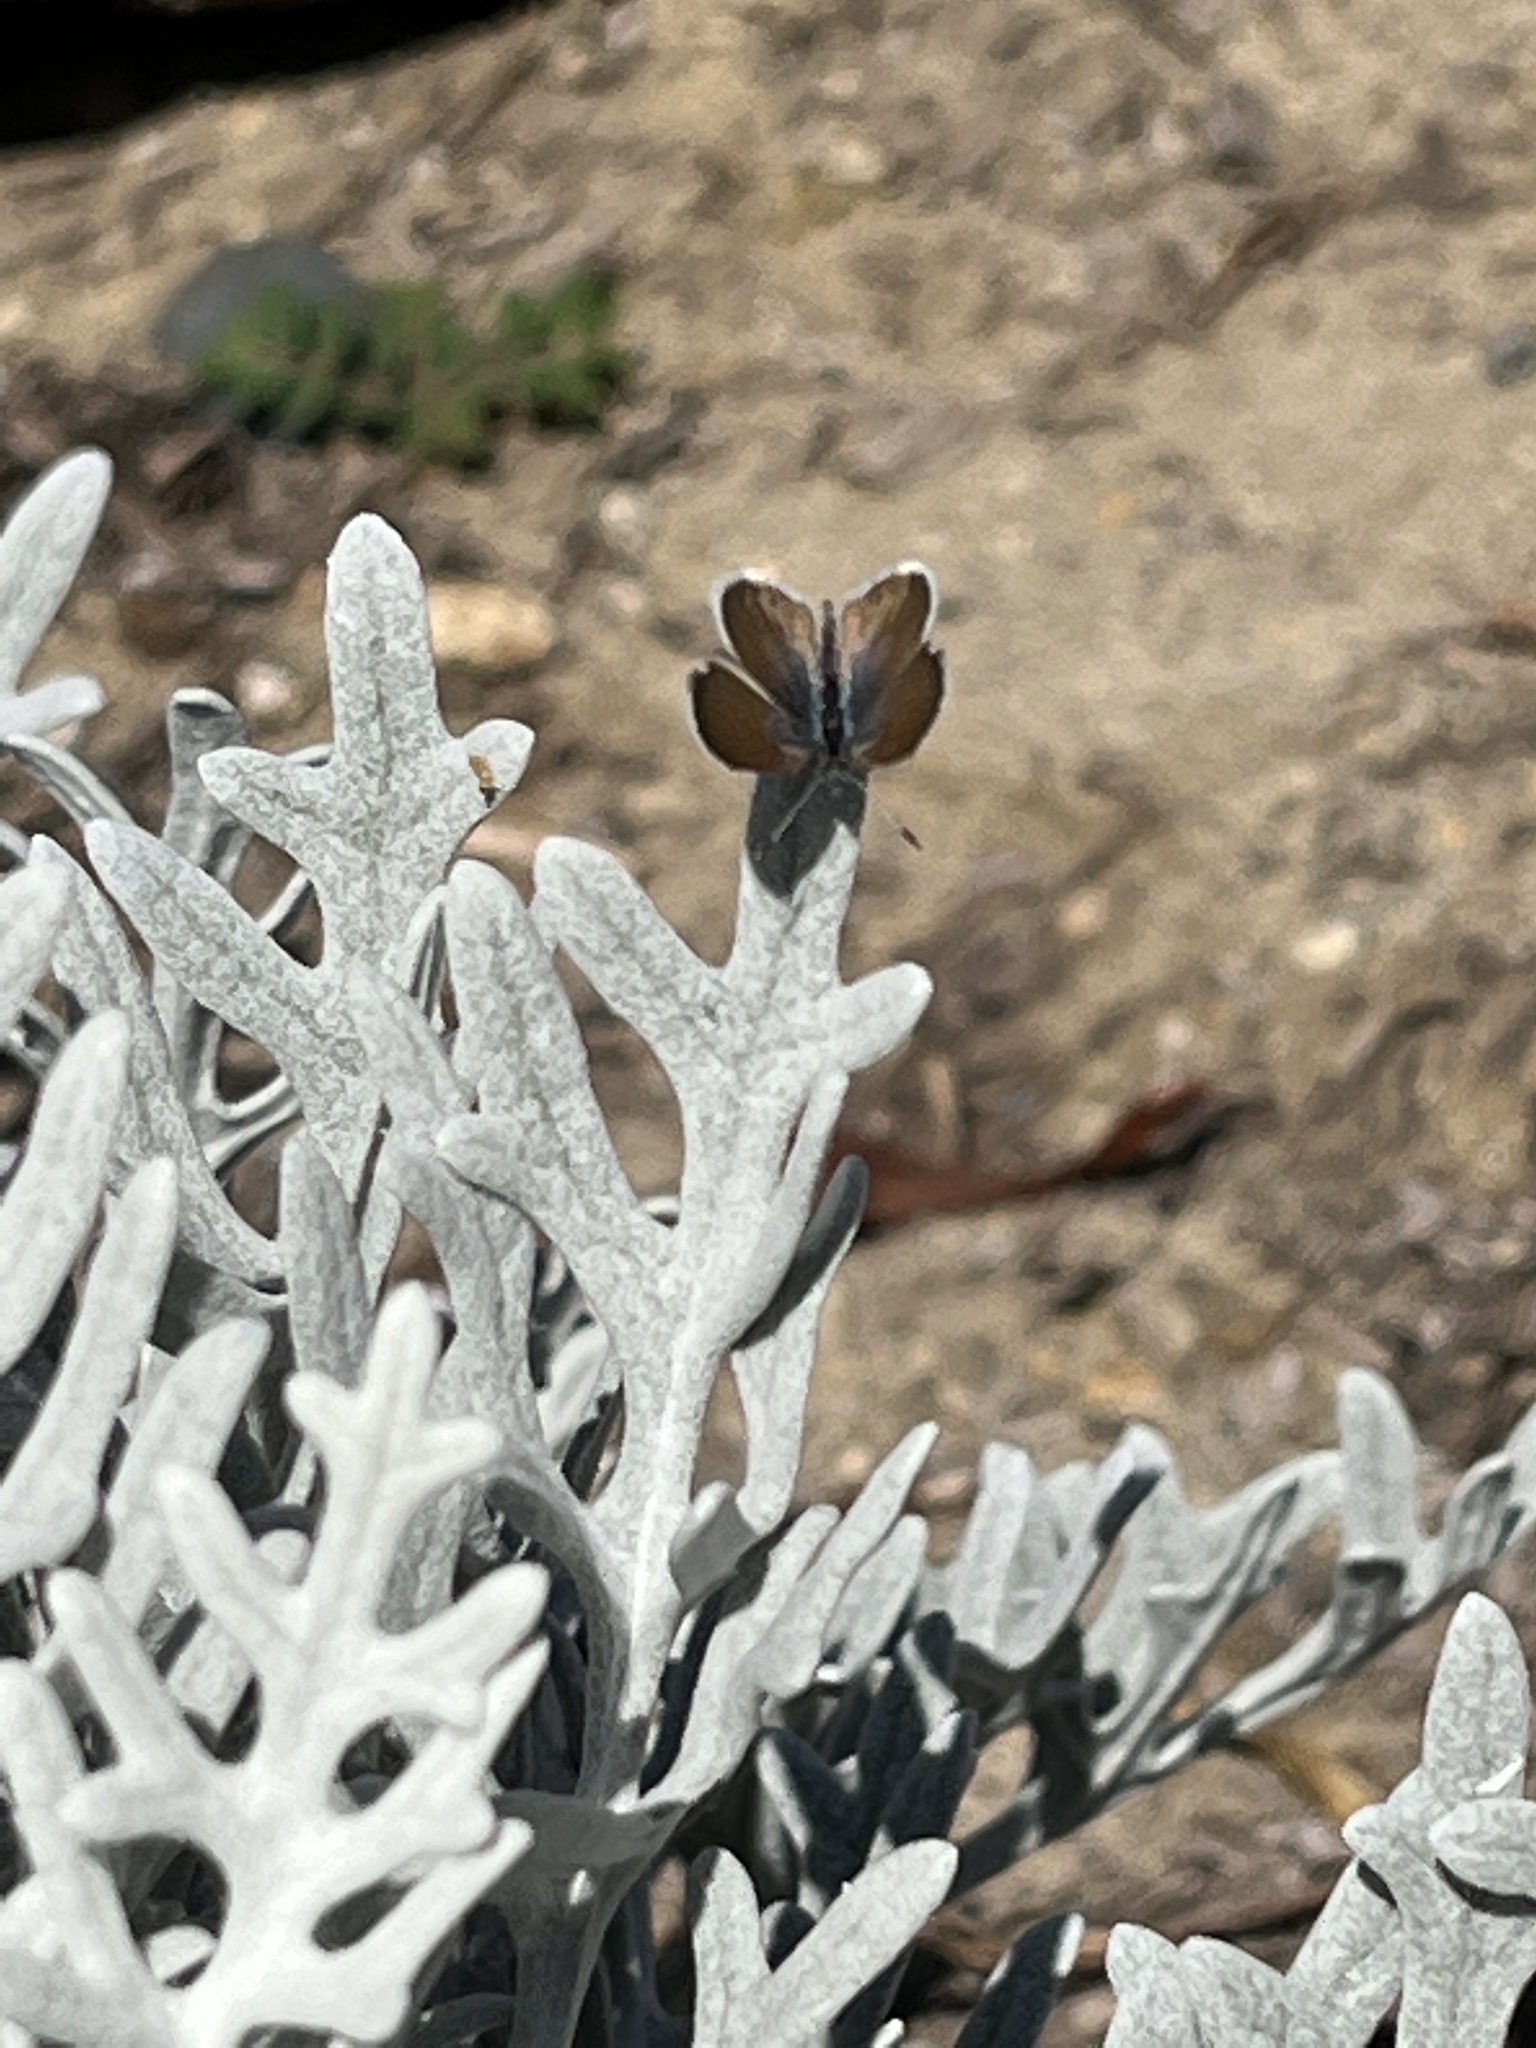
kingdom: Animalia
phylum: Arthropoda
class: Insecta
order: Lepidoptera
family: Lycaenidae
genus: Brephidium
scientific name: Brephidium exilis
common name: Pygmy blue
